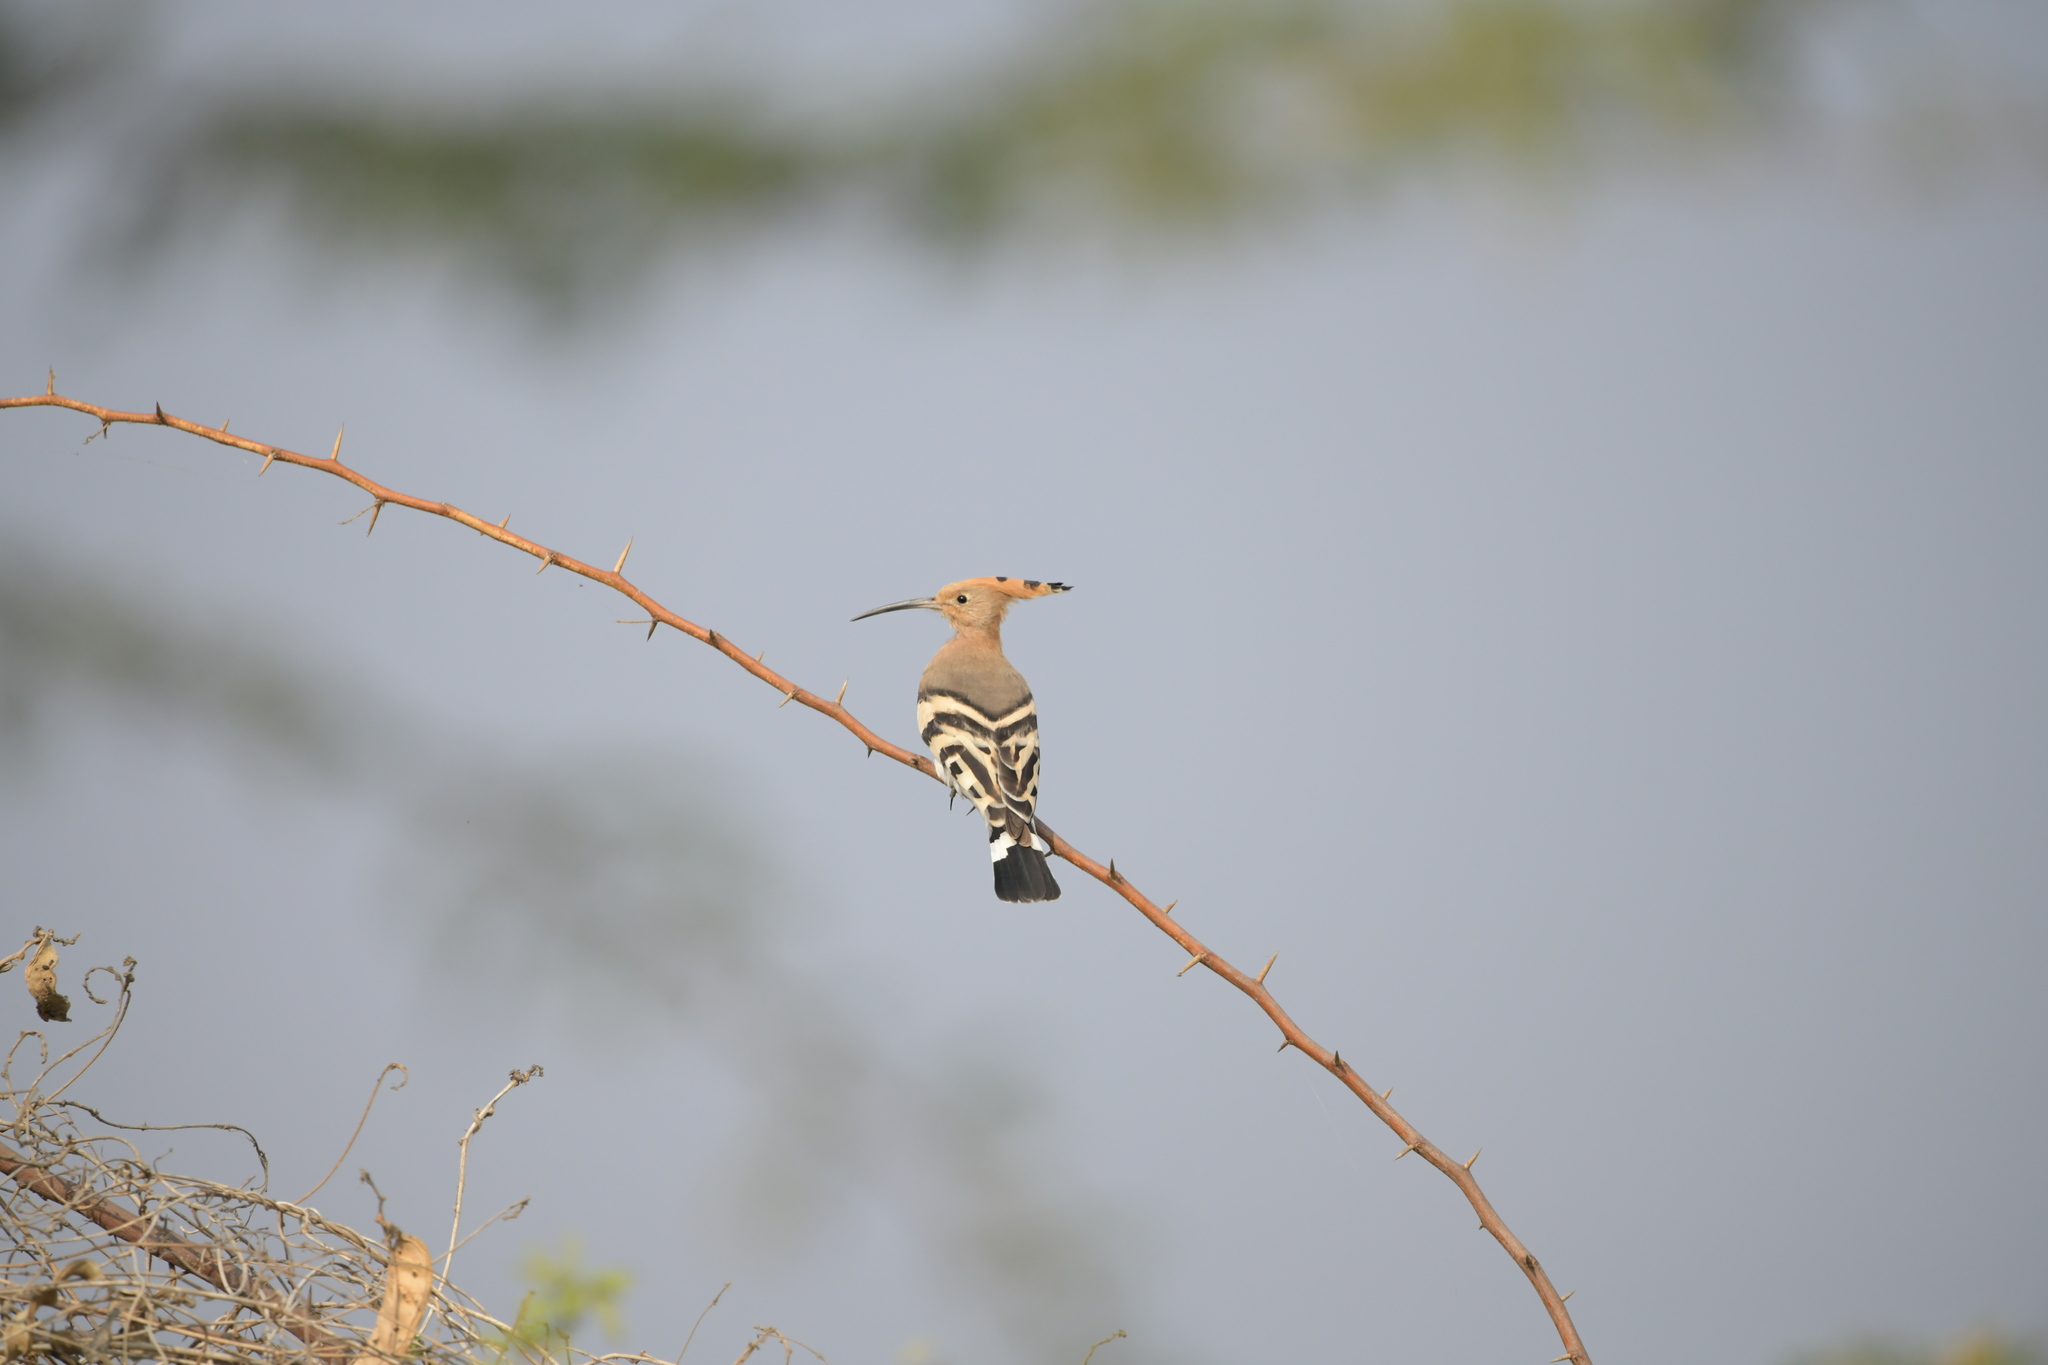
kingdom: Animalia
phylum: Chordata
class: Aves
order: Bucerotiformes
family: Upupidae
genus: Upupa
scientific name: Upupa epops
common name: Eurasian hoopoe
